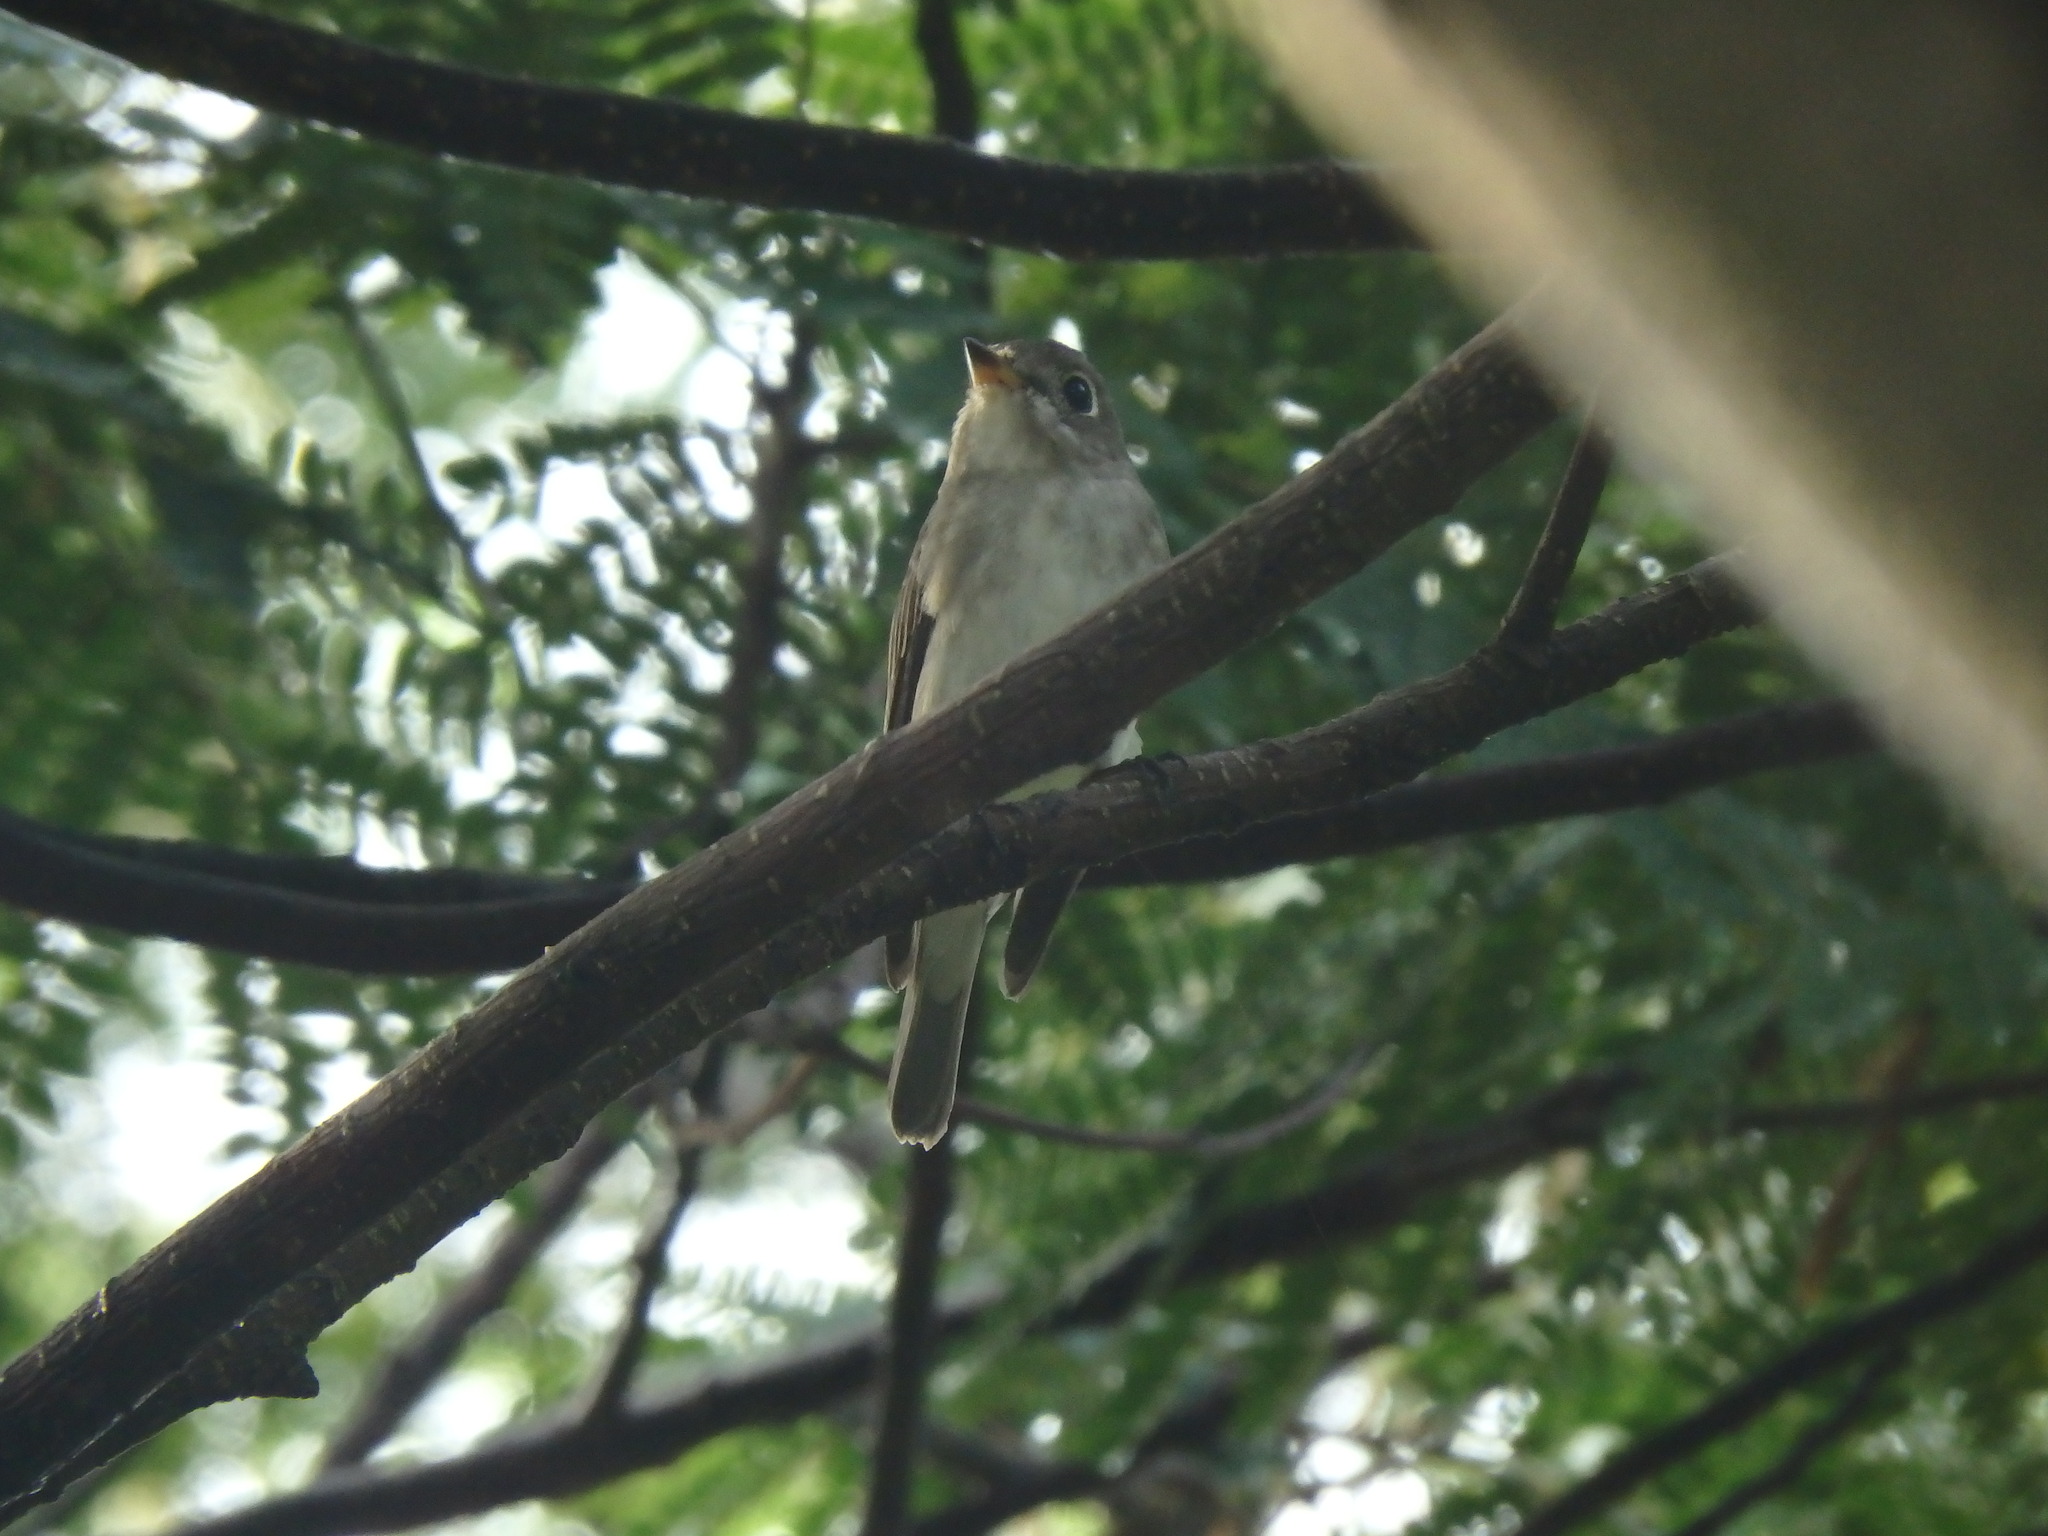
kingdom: Animalia
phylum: Chordata
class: Aves
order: Passeriformes
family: Muscicapidae
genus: Muscicapa
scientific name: Muscicapa latirostris
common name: Asian brown flycatcher
